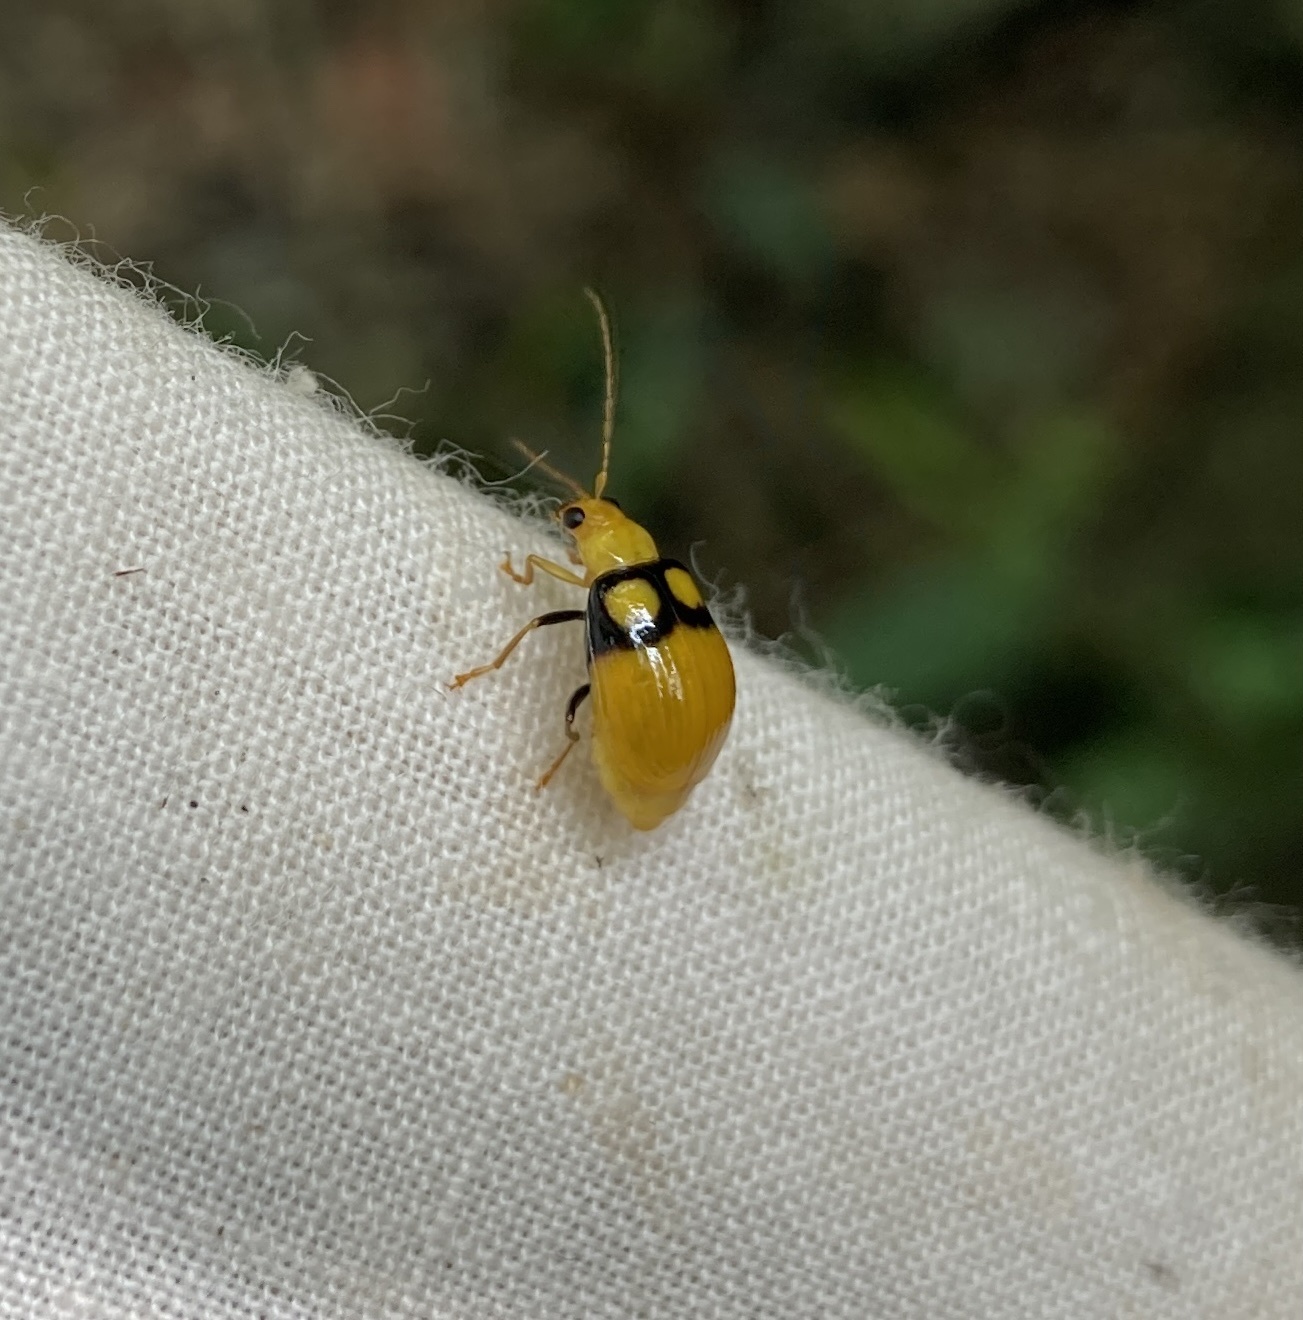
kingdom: Animalia
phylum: Arthropoda
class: Insecta
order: Coleoptera
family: Chrysomelidae
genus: Monolepta
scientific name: Monolepta
